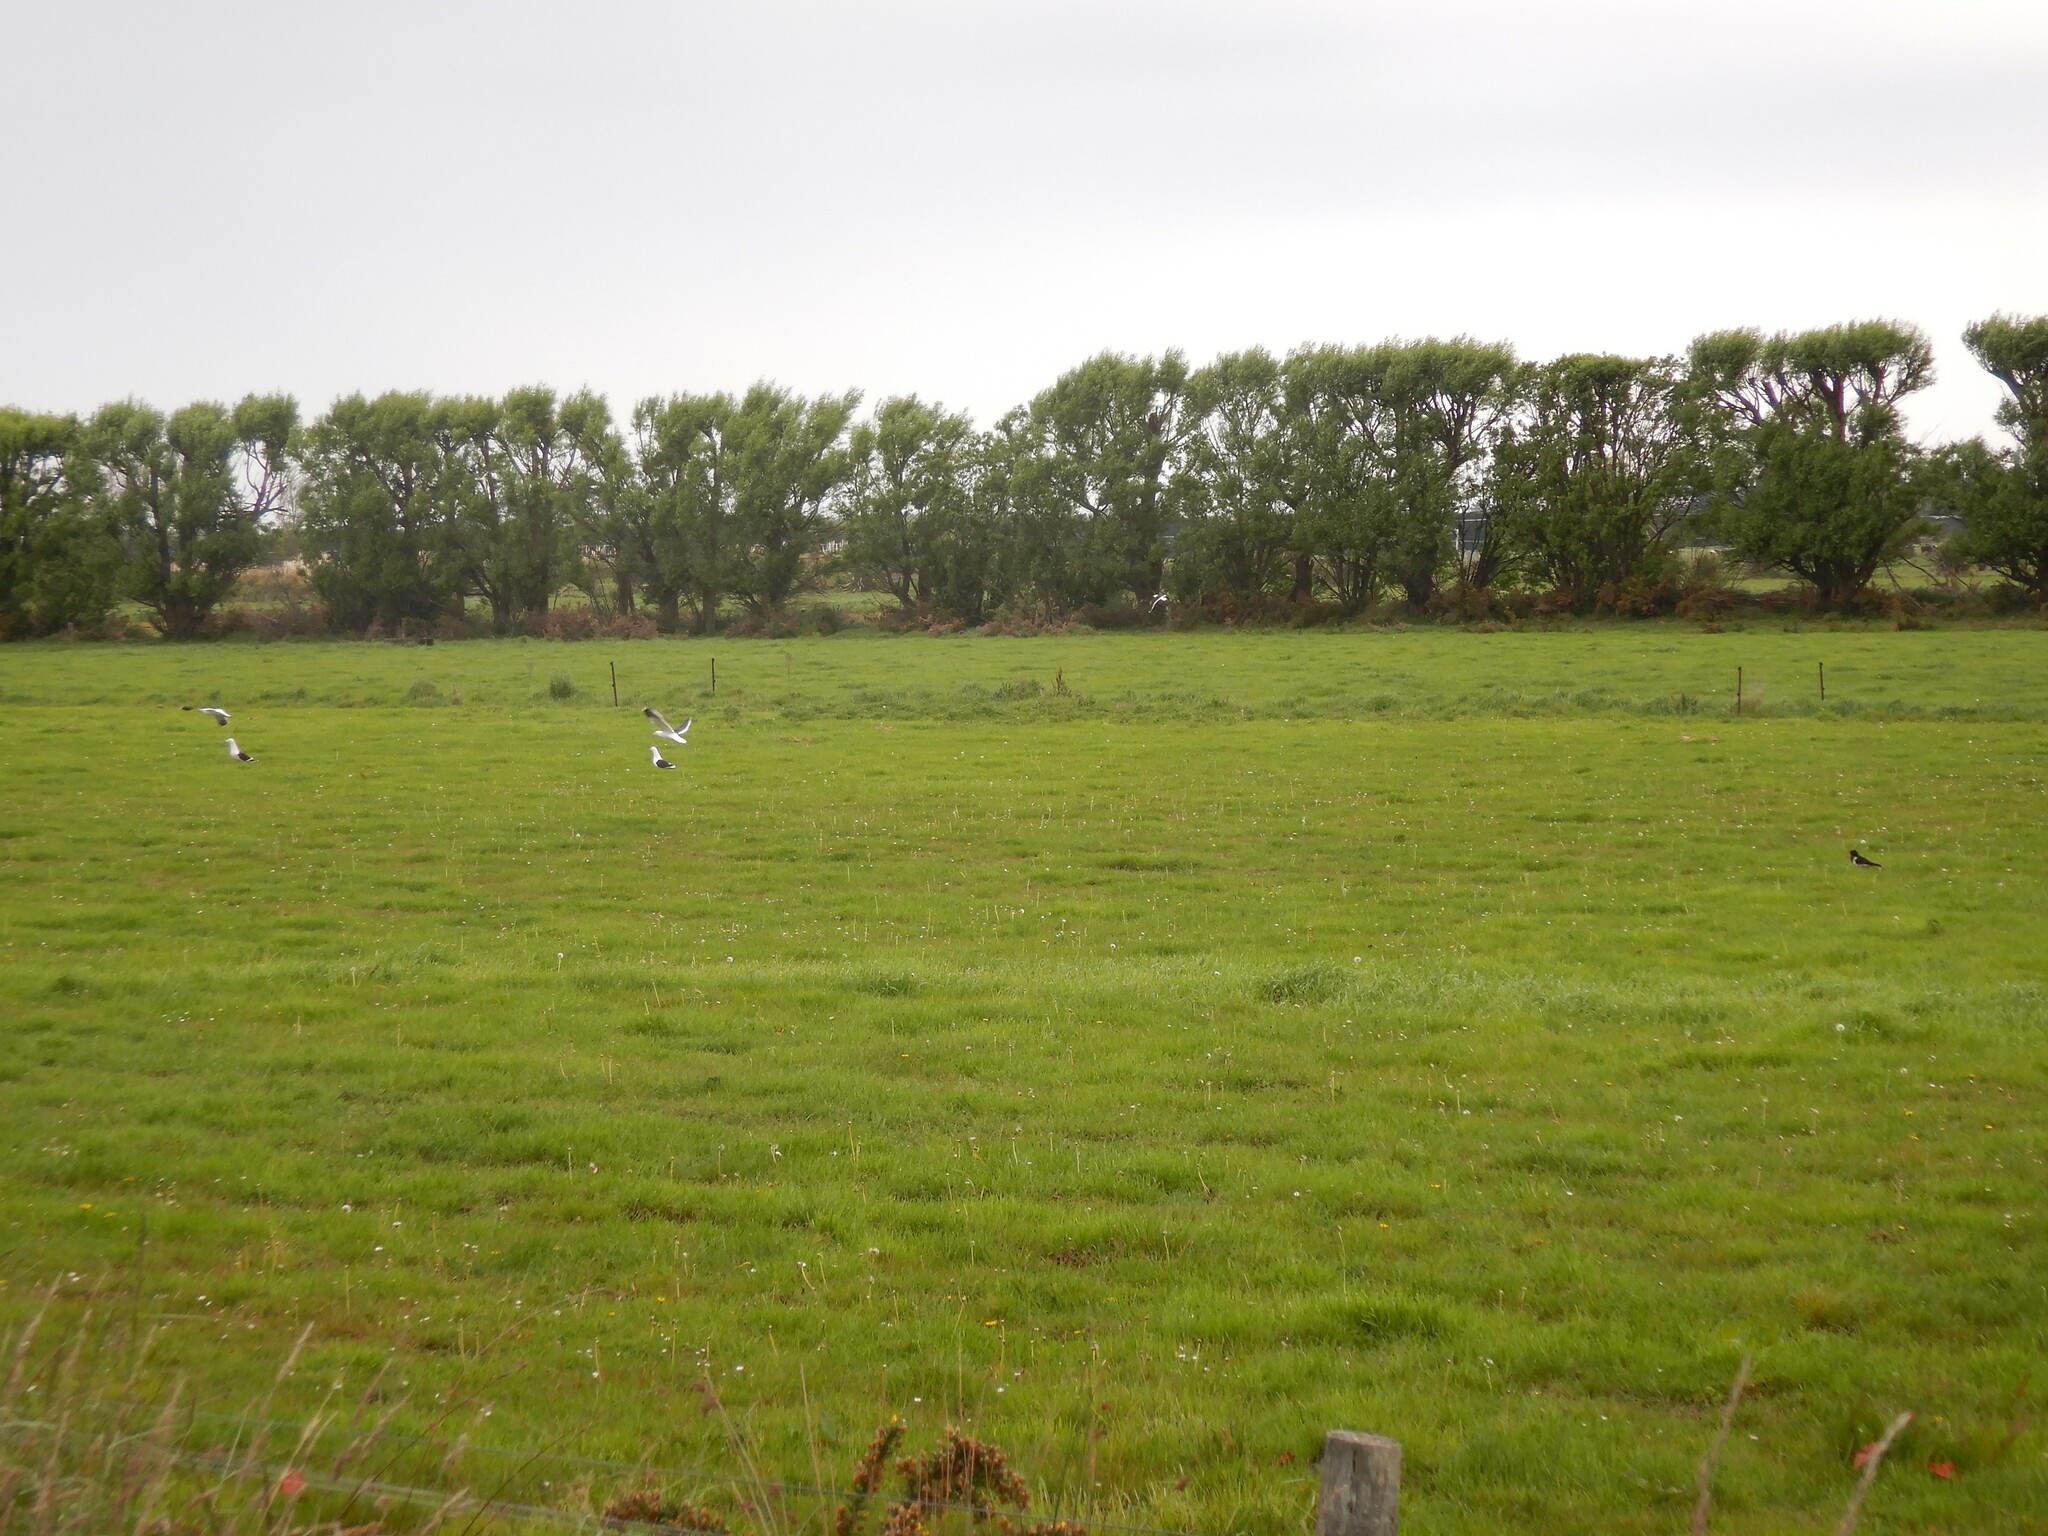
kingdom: Animalia
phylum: Chordata
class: Aves
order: Charadriiformes
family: Laridae
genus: Larus
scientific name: Larus dominicanus
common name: Kelp gull
